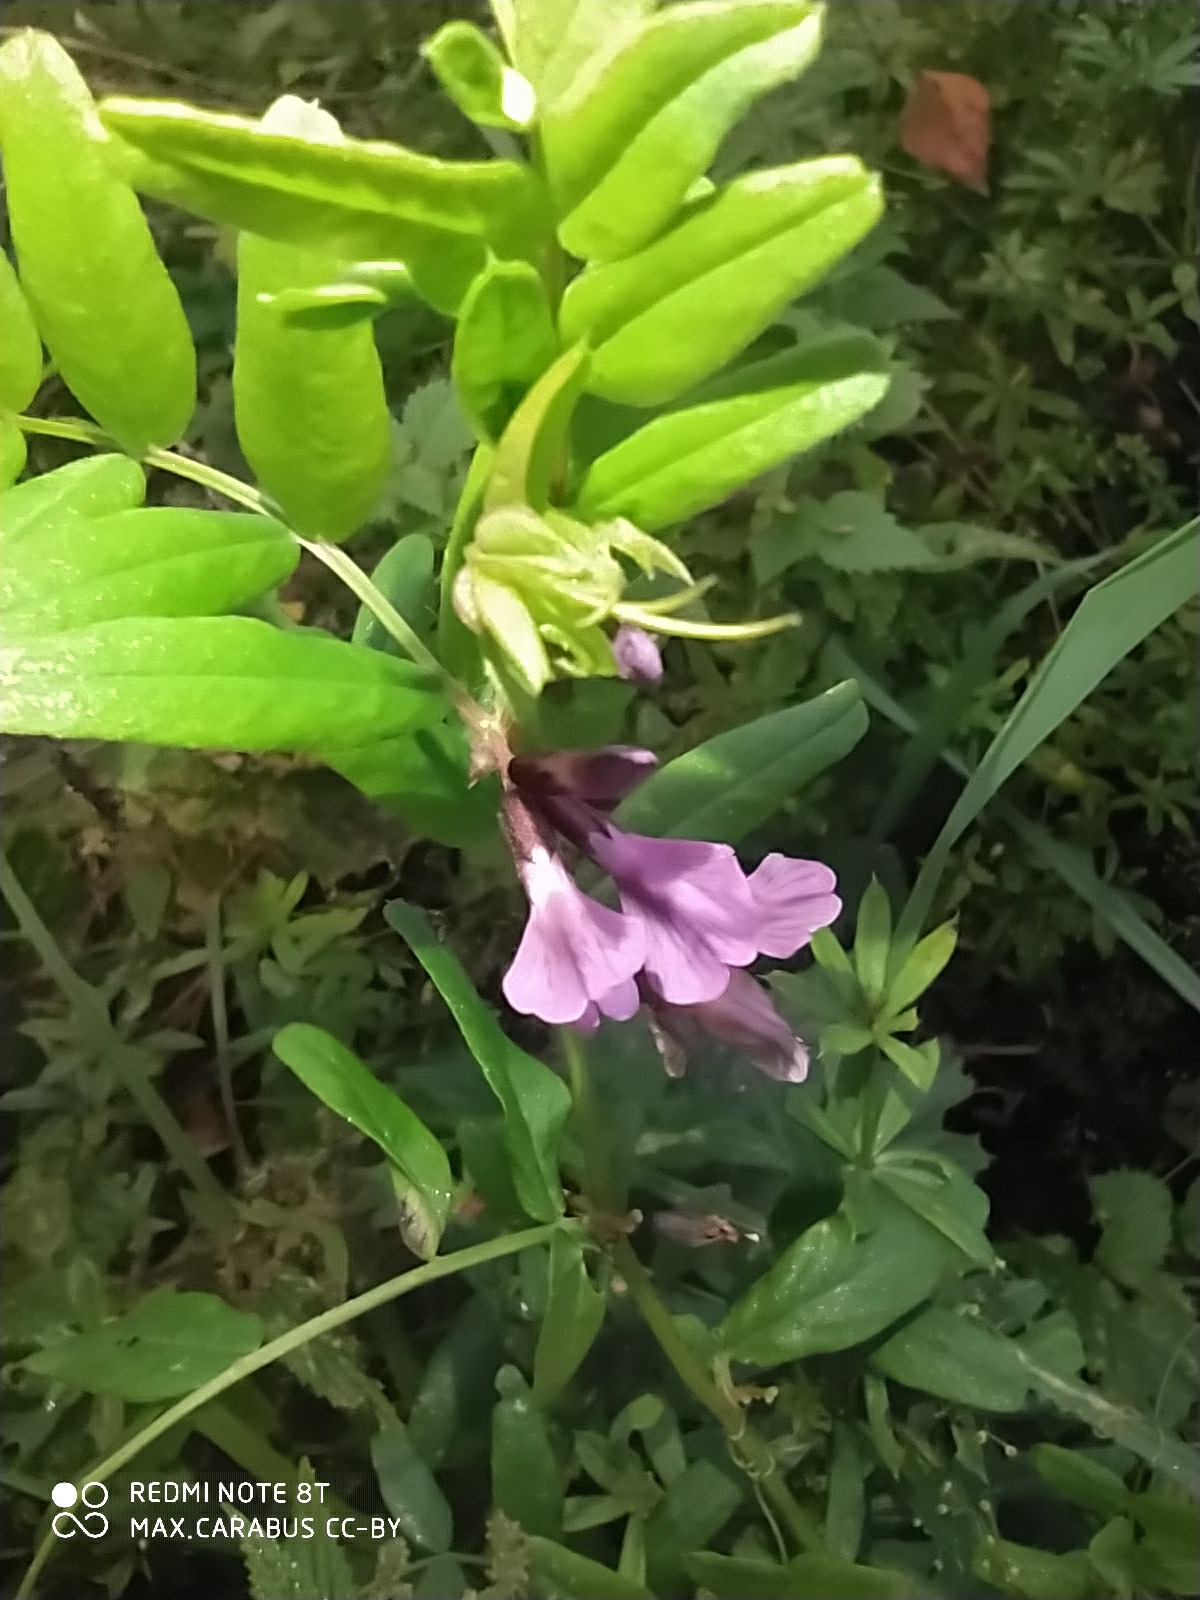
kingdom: Plantae
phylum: Tracheophyta
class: Magnoliopsida
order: Fabales
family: Fabaceae
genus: Vicia
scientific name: Vicia sepium
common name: Bush vetch
